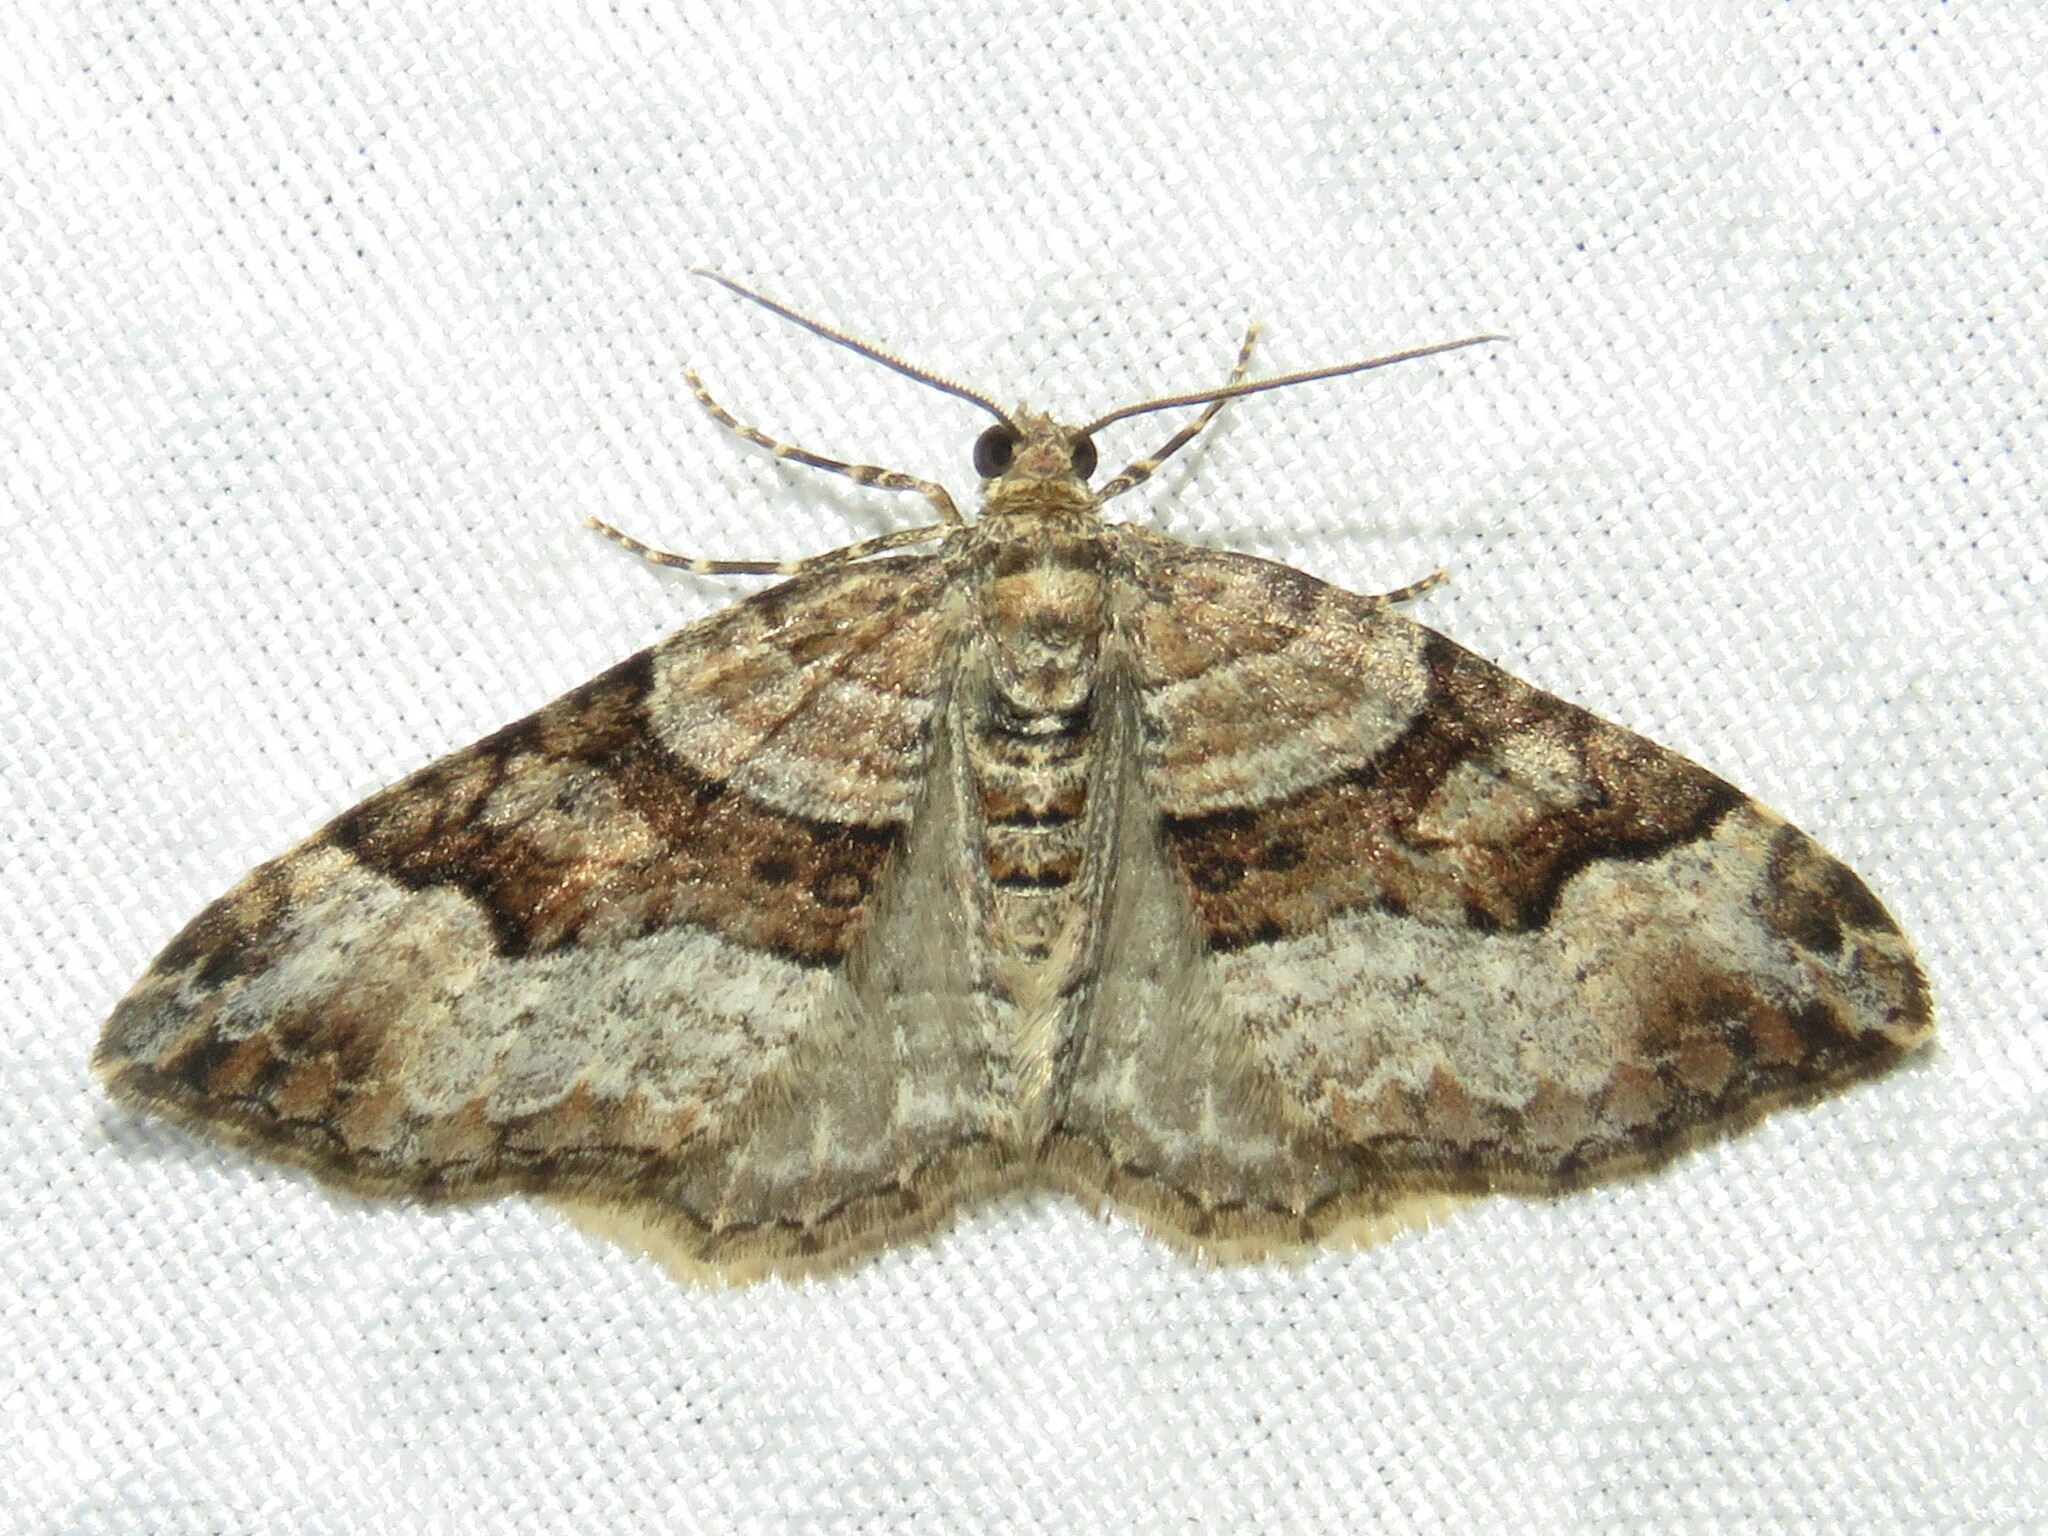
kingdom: Animalia
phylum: Arthropoda
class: Insecta
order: Lepidoptera
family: Geometridae
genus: Xanthorhoe
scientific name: Xanthorhoe lacustrata
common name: Toothed brown carpet
